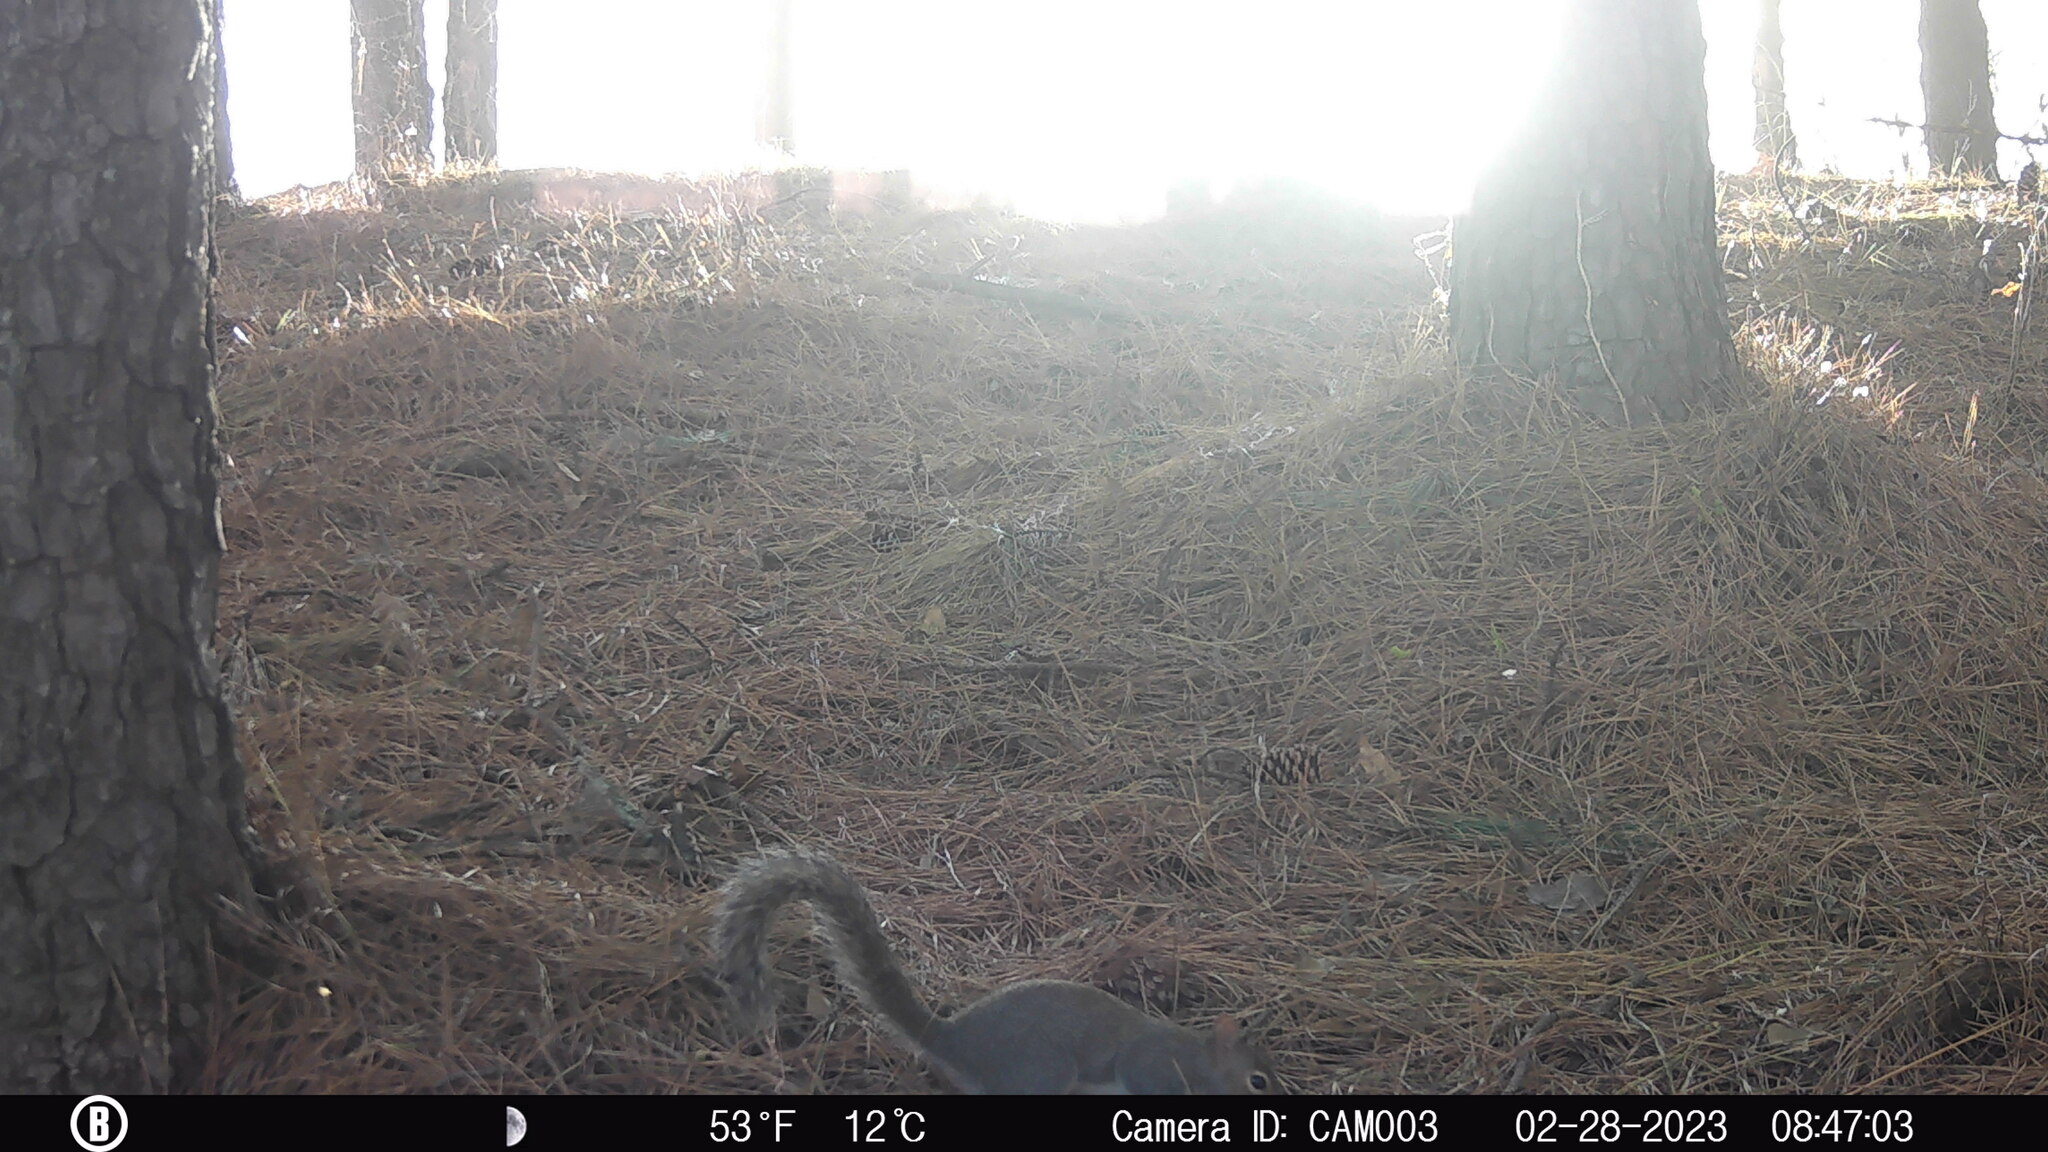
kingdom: Animalia
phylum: Chordata
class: Mammalia
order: Rodentia
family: Sciuridae
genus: Sciurus
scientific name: Sciurus carolinensis
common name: Eastern gray squirrel
